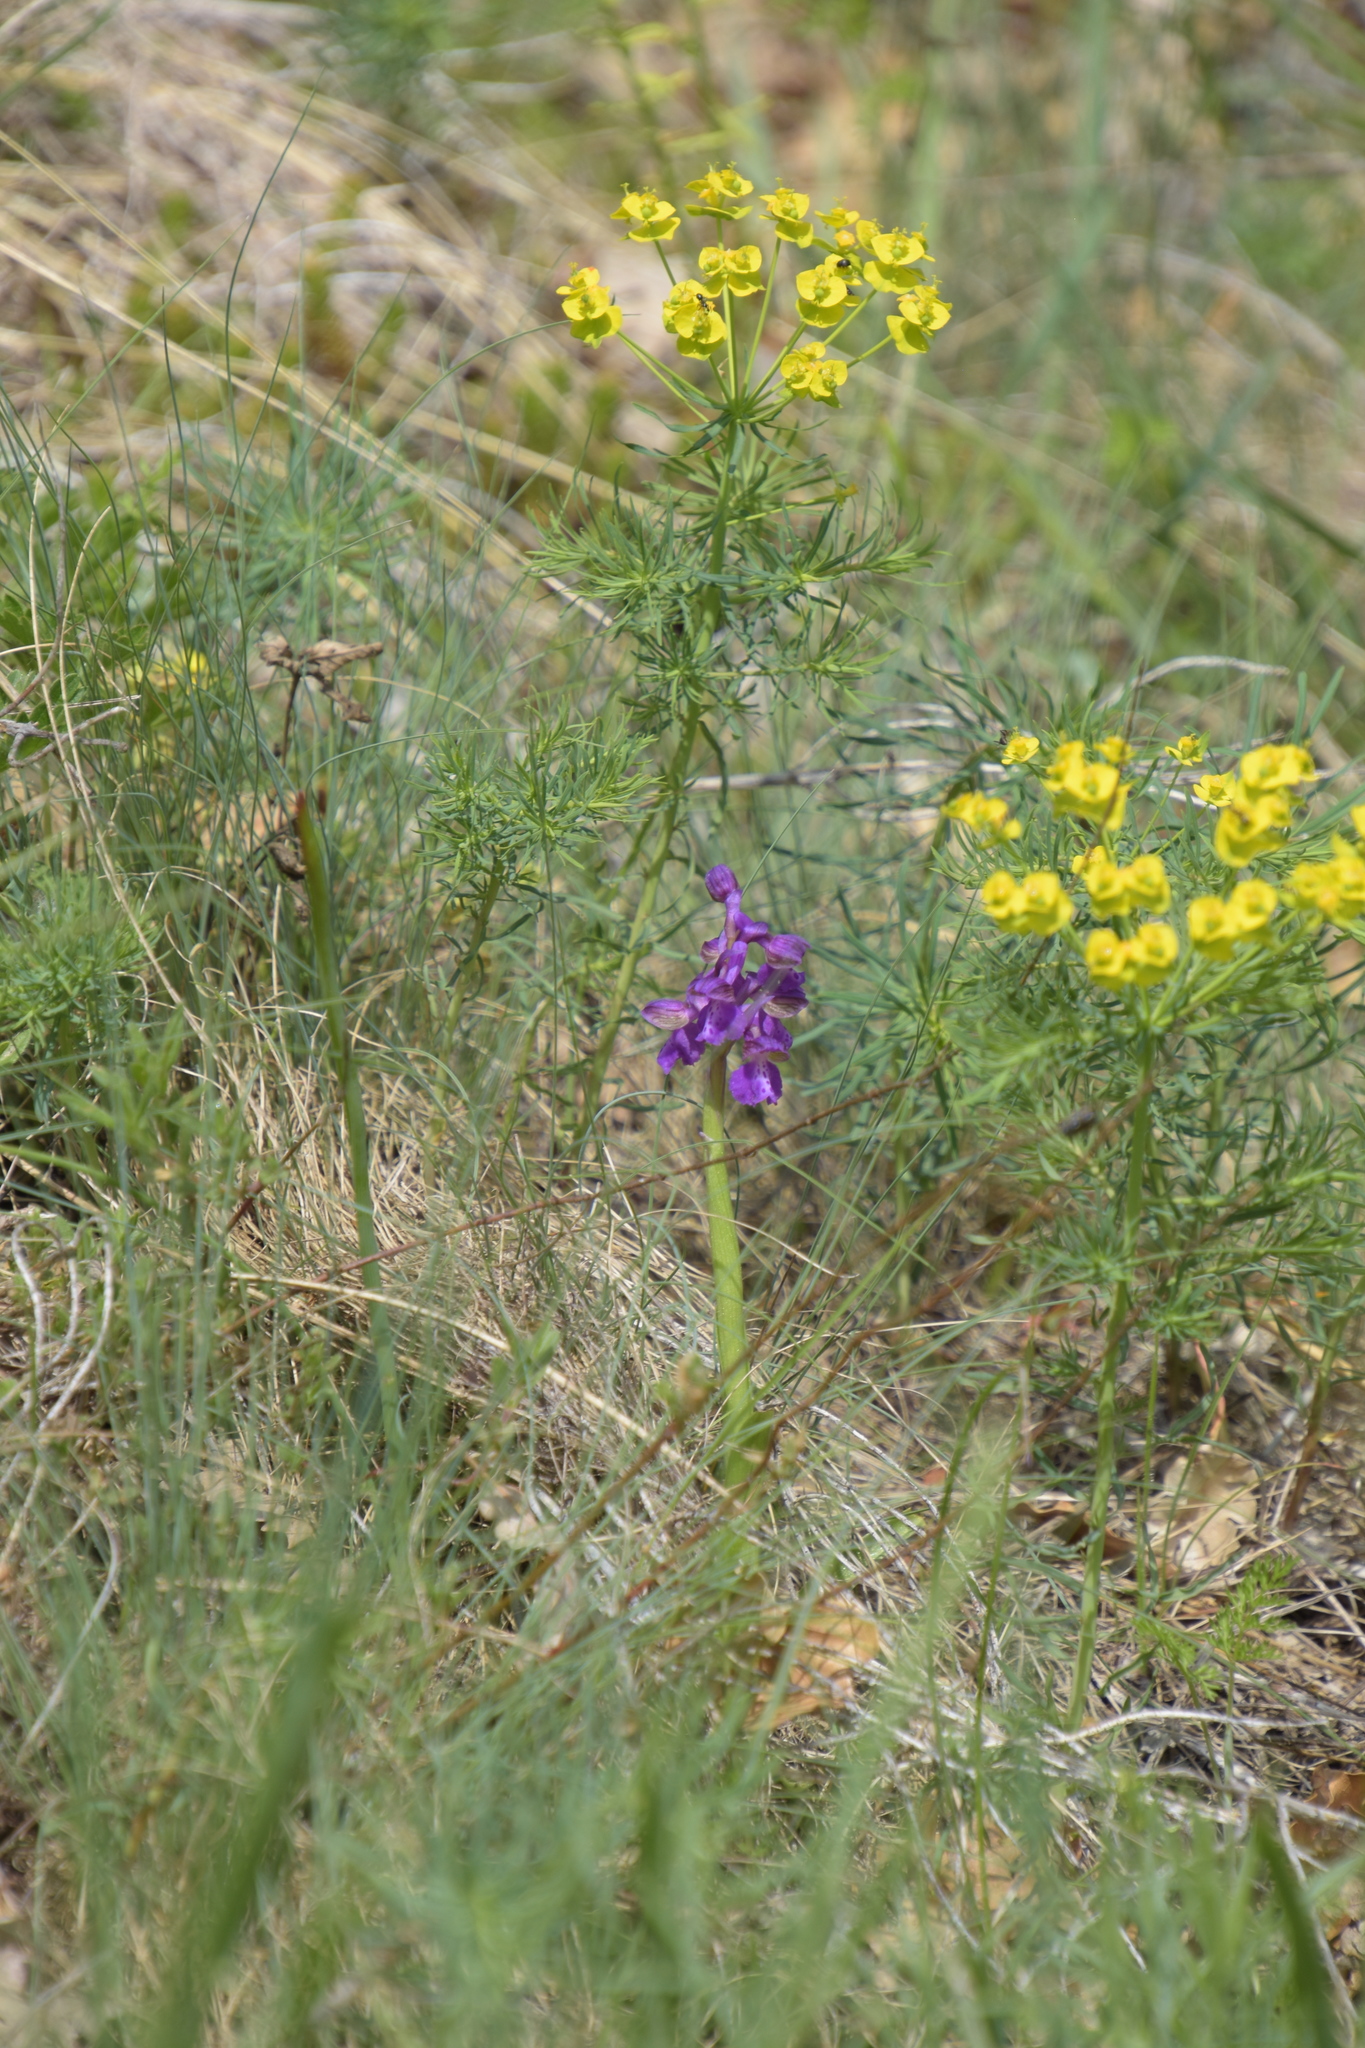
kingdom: Plantae
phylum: Tracheophyta
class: Liliopsida
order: Asparagales
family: Orchidaceae
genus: Anacamptis
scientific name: Anacamptis morio
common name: Green-winged orchid
